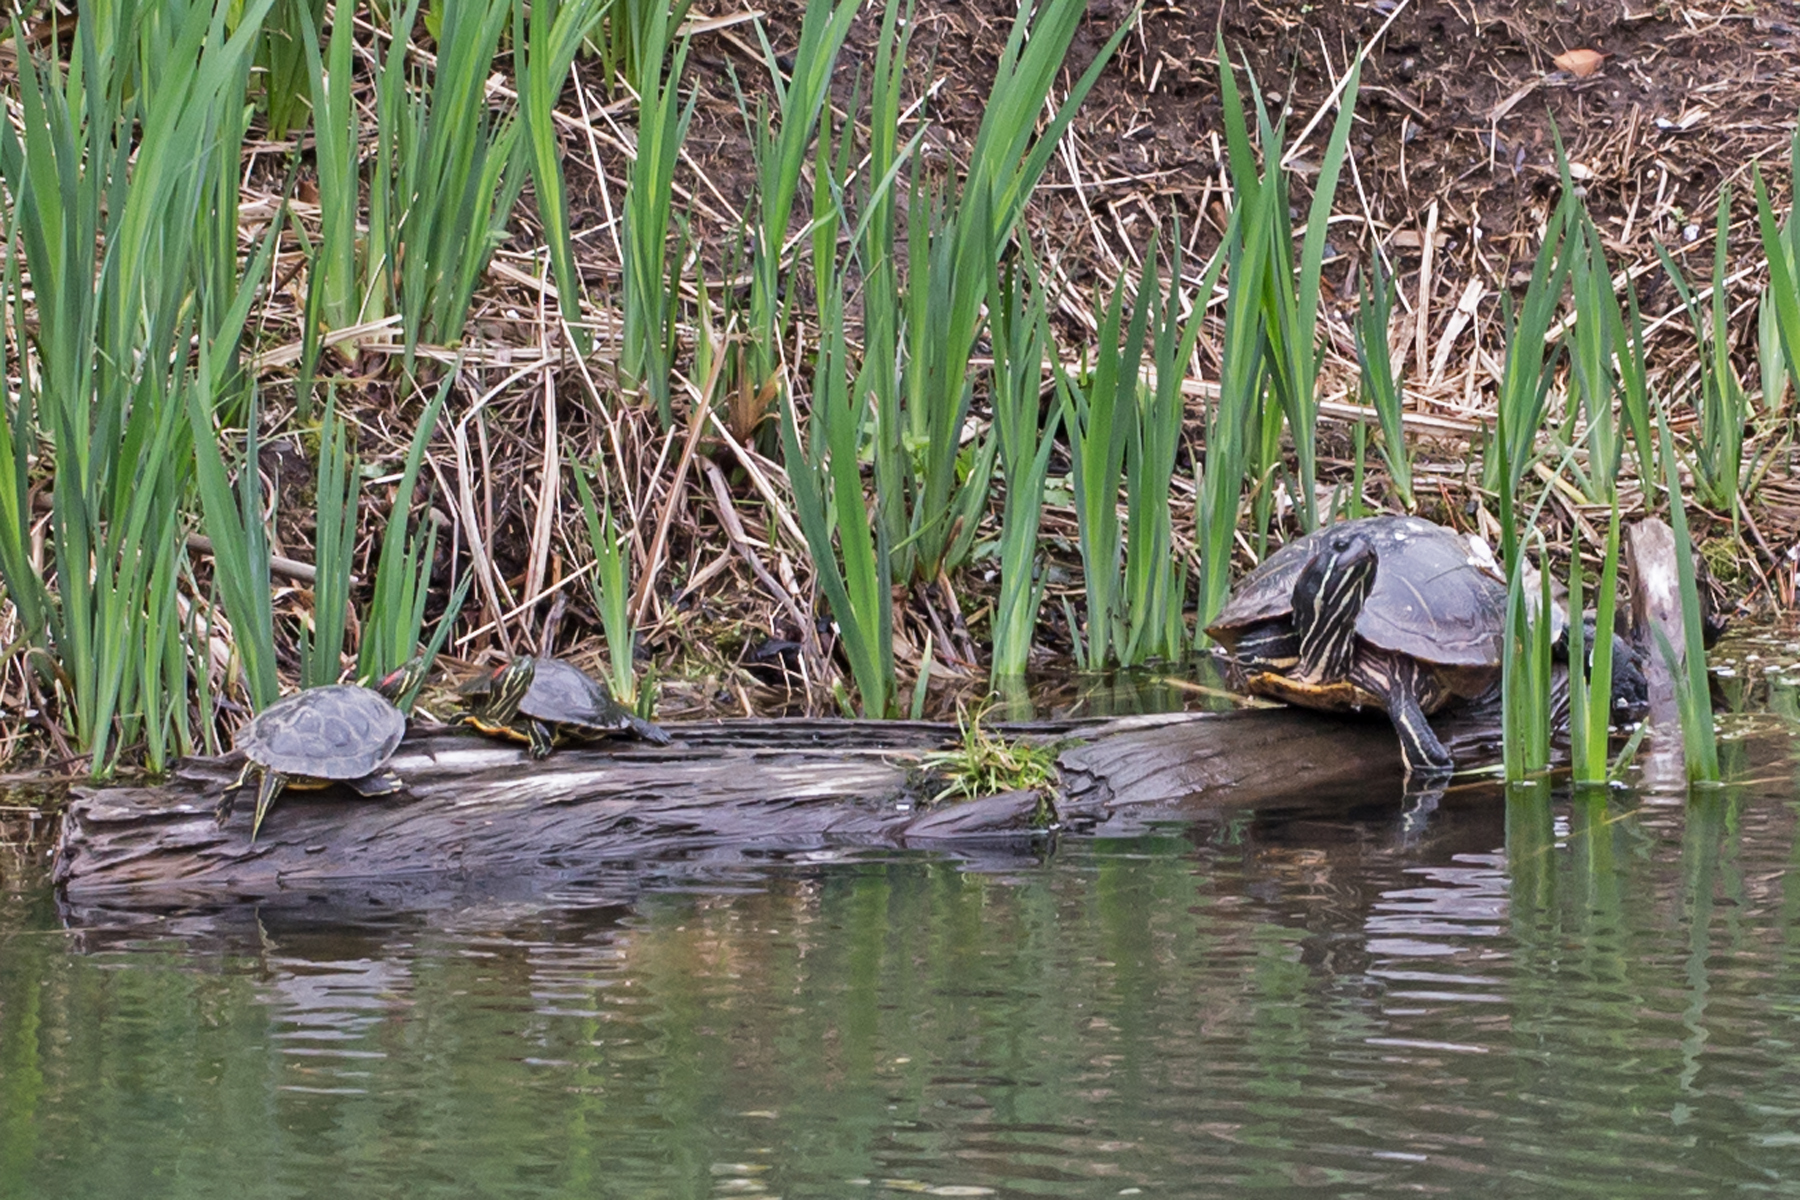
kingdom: Animalia
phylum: Chordata
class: Testudines
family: Emydidae
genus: Trachemys
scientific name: Trachemys scripta
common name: Slider
